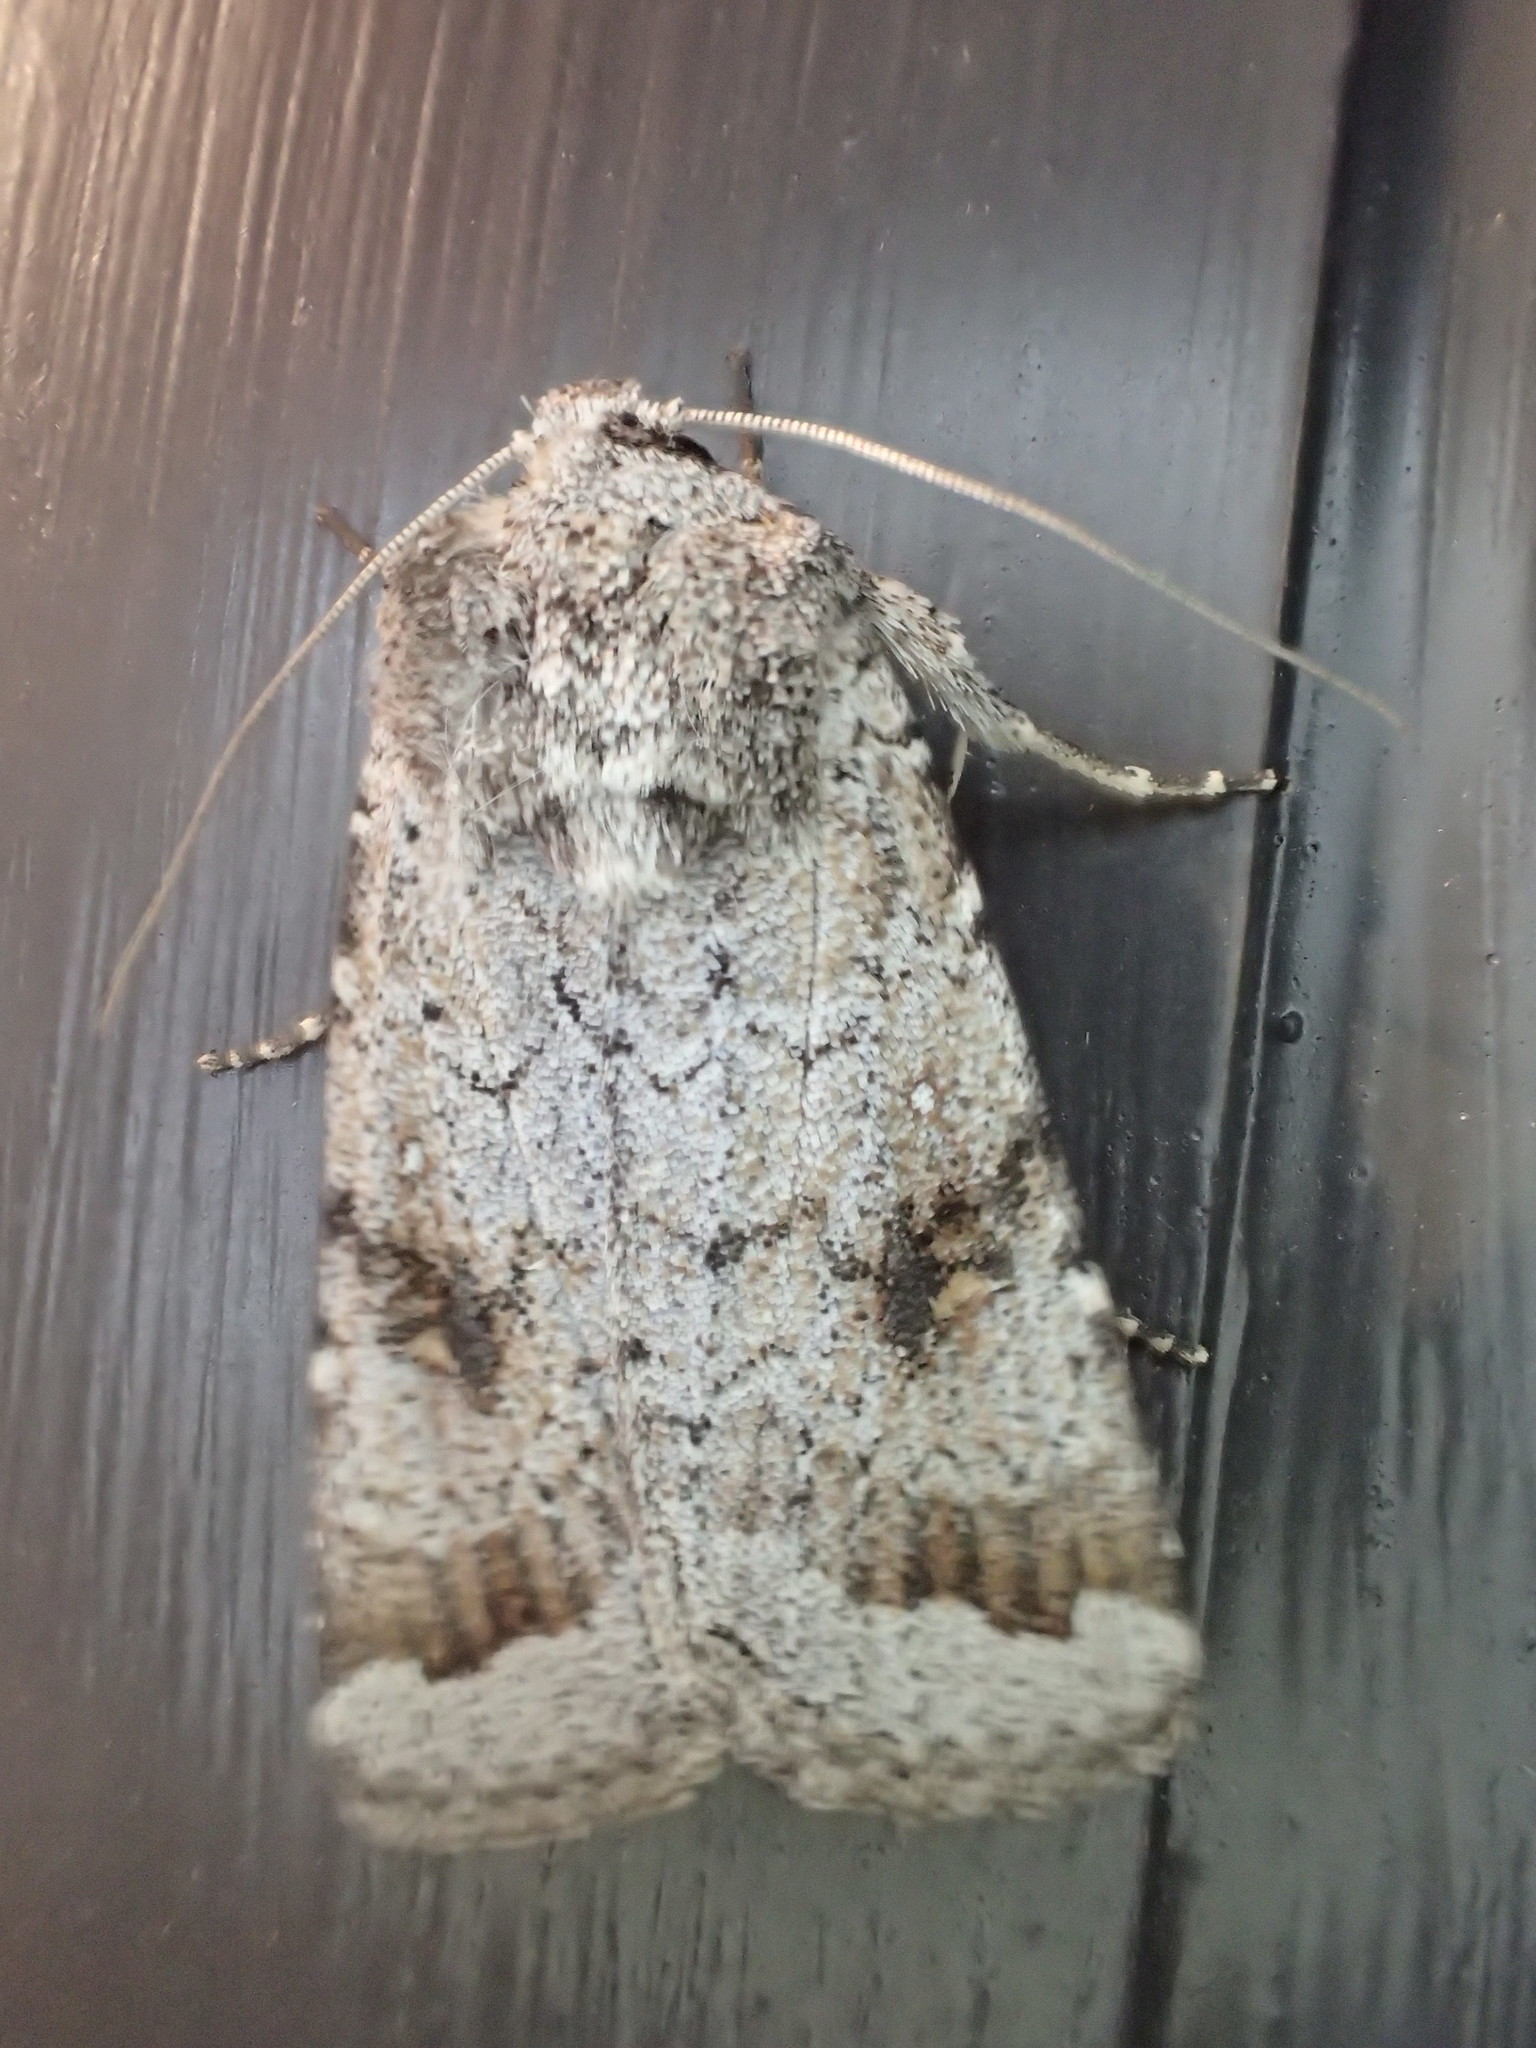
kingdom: Animalia
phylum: Arthropoda
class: Insecta
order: Lepidoptera
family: Noctuidae
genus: Proteuxoa
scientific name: Proteuxoa amaurodes
